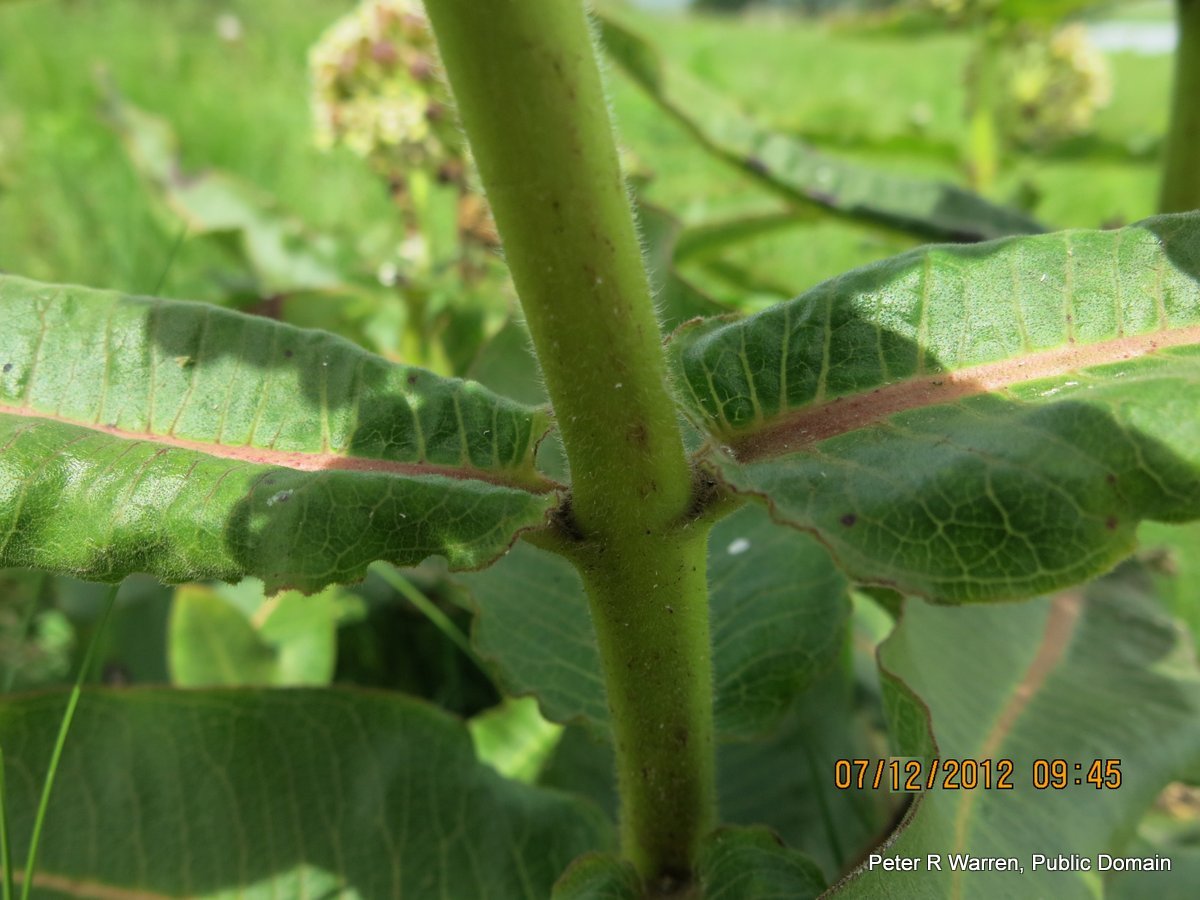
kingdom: Plantae
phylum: Tracheophyta
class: Magnoliopsida
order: Gentianales
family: Apocynaceae
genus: Xysmalobium
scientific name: Xysmalobium undulatum
